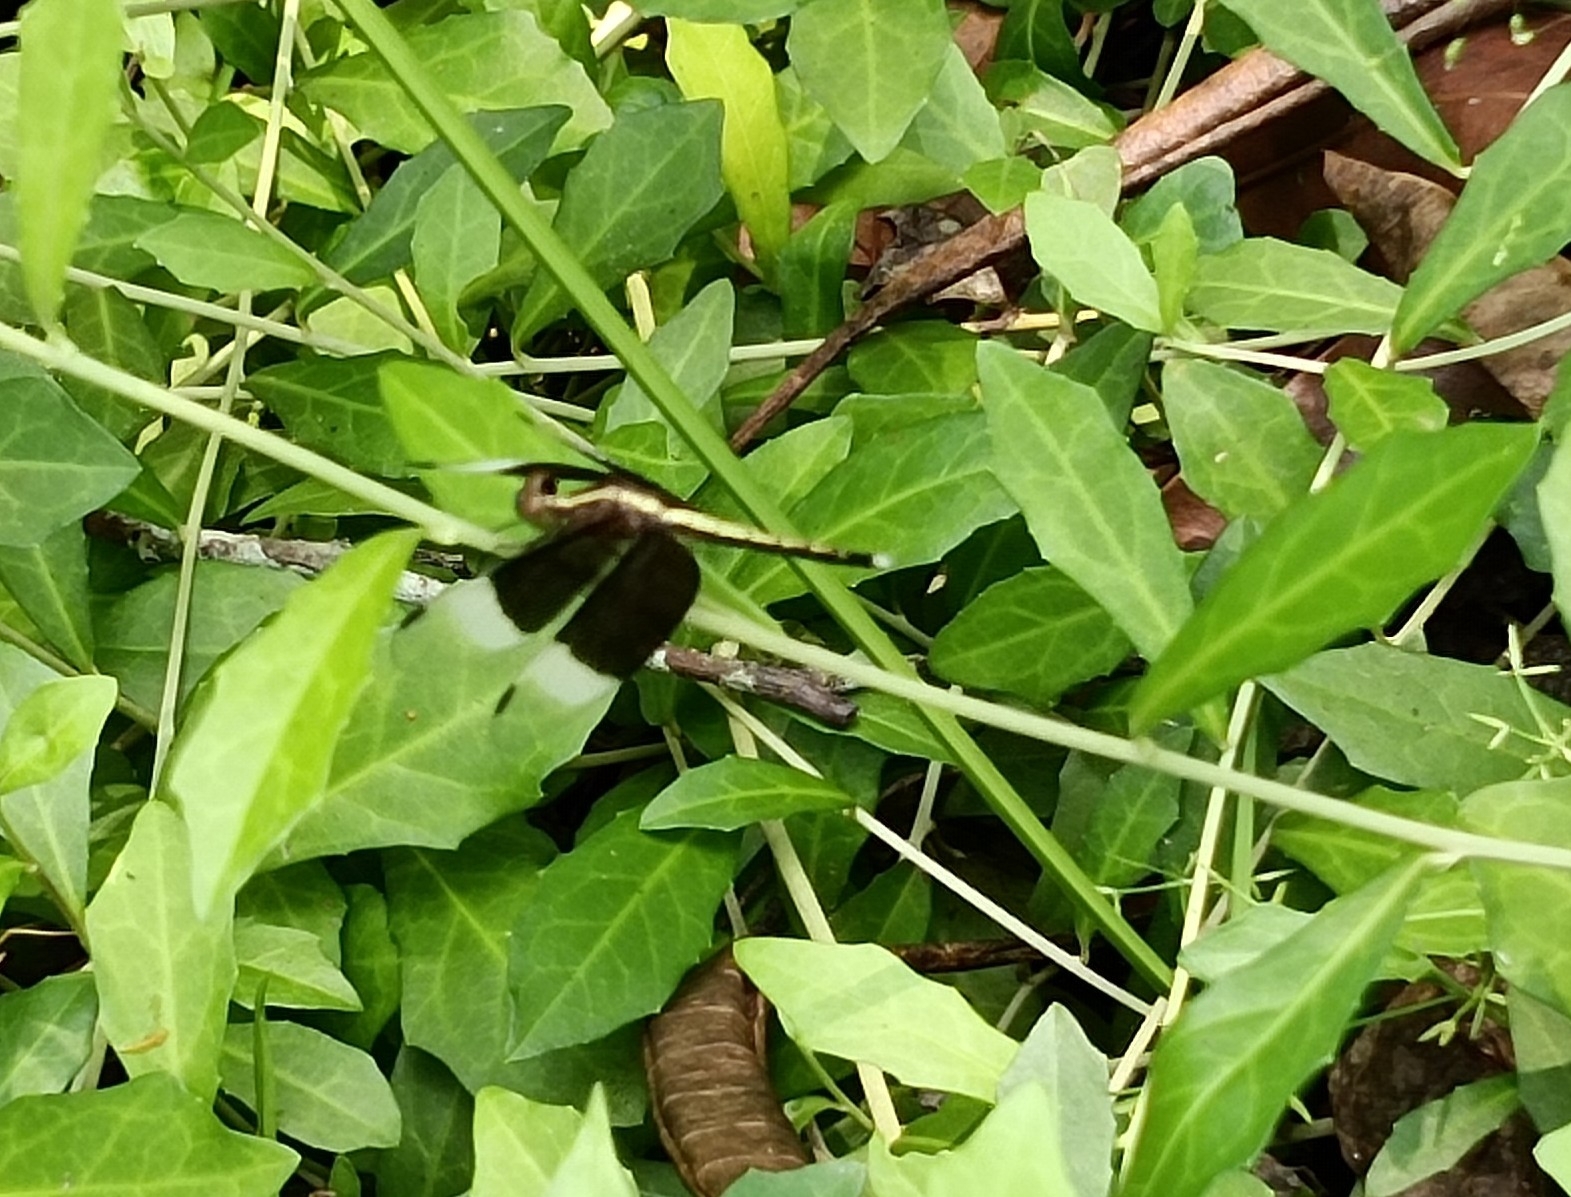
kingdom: Animalia
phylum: Arthropoda
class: Insecta
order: Odonata
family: Libellulidae
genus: Neurothemis
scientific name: Neurothemis tullia
